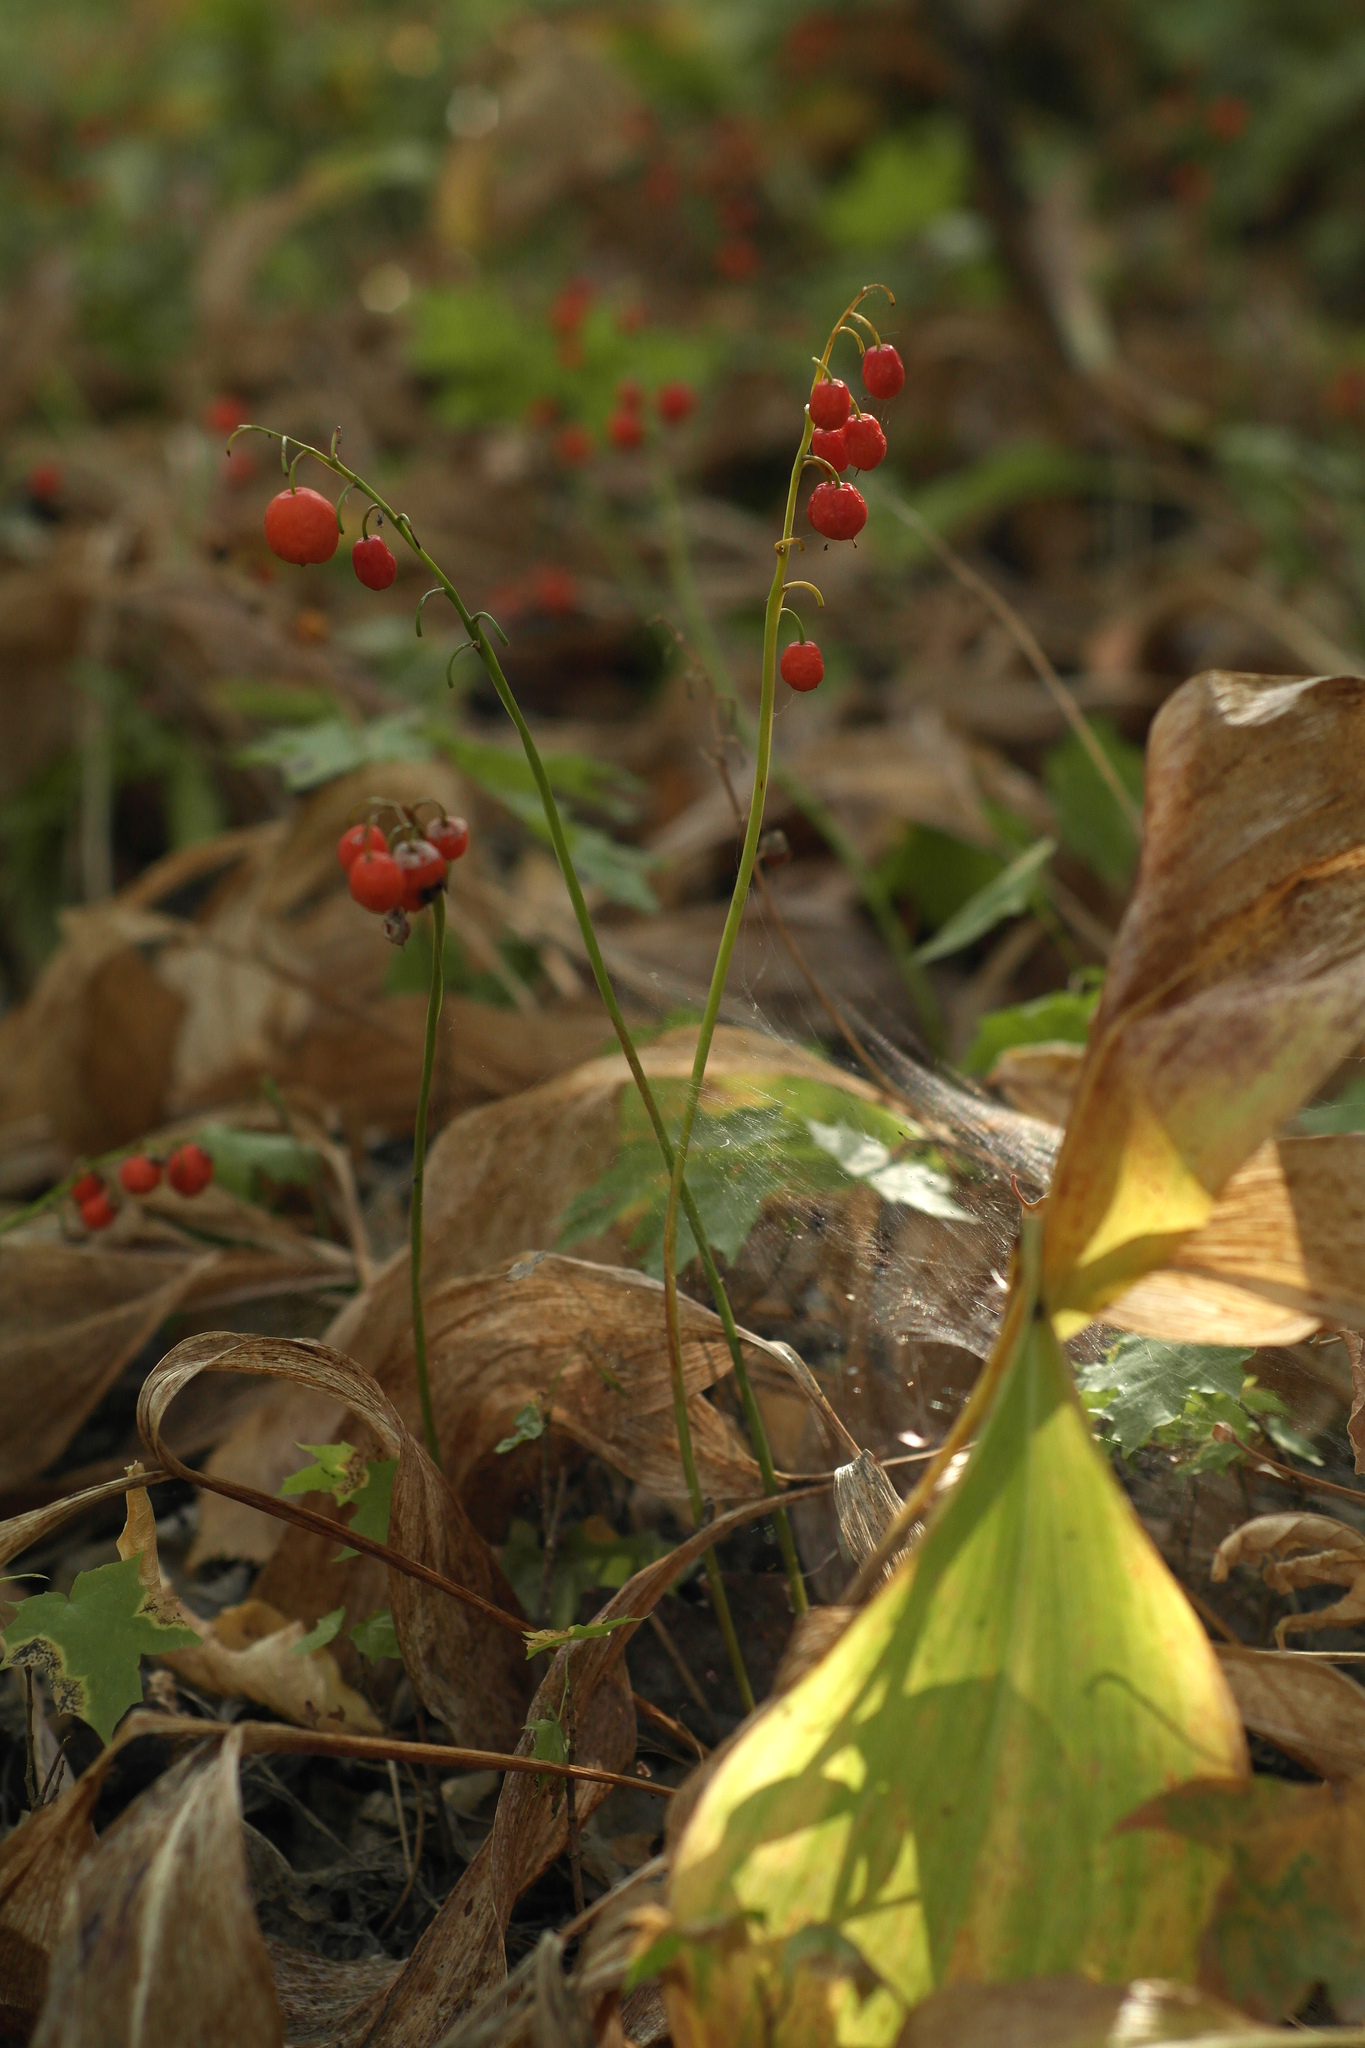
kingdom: Plantae
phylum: Tracheophyta
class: Liliopsida
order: Asparagales
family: Asparagaceae
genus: Convallaria
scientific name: Convallaria majalis
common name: Lily-of-the-valley
